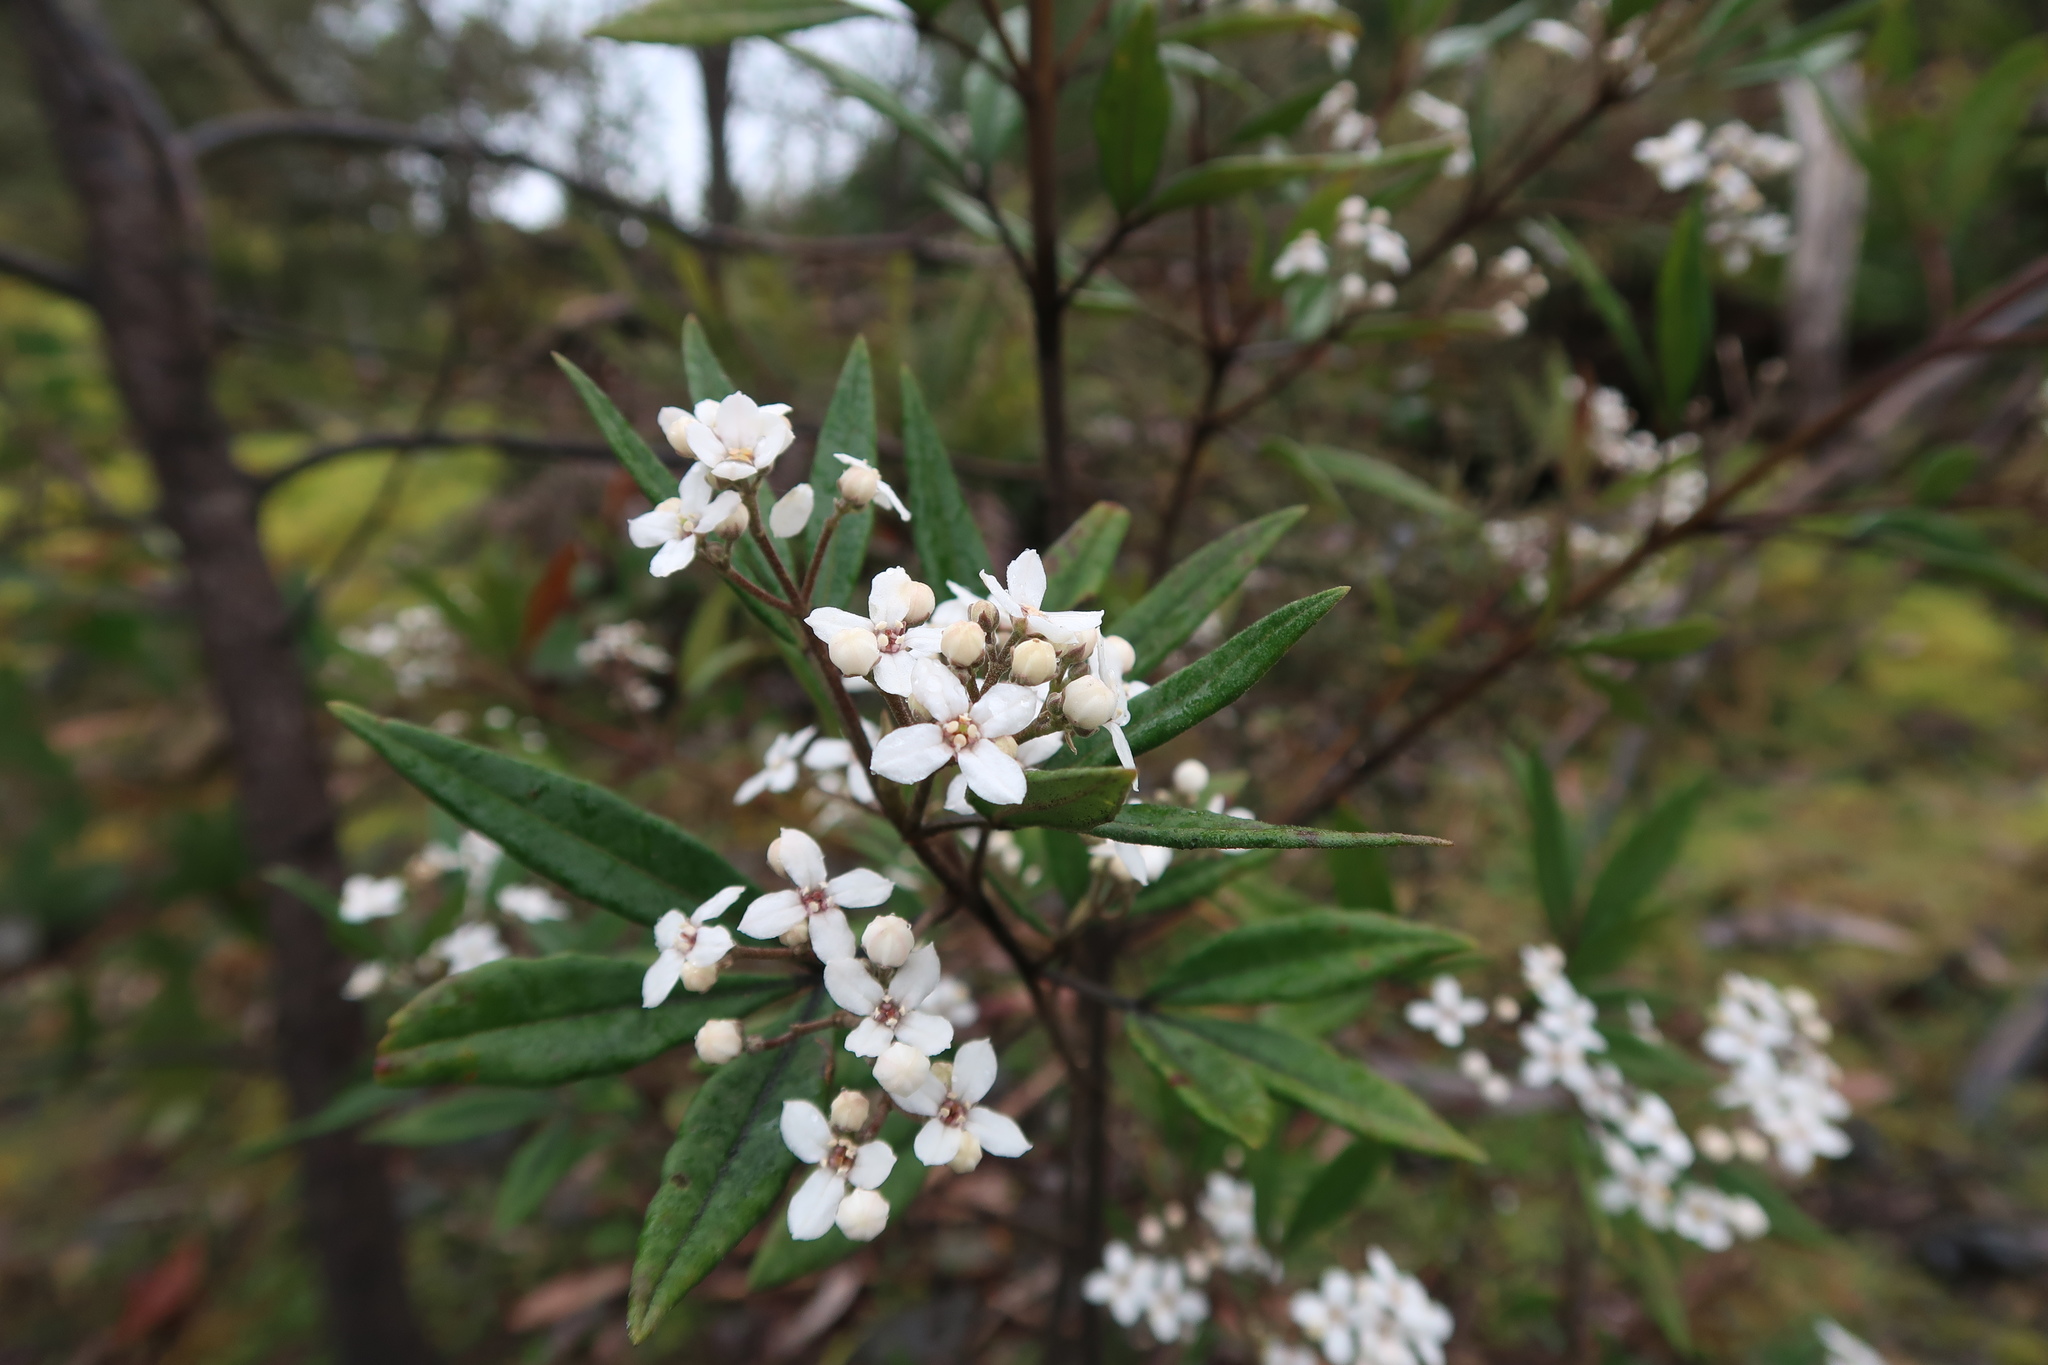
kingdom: Plantae
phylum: Tracheophyta
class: Magnoliopsida
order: Sapindales
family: Rutaceae
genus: Zieria
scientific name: Zieria arborescens
